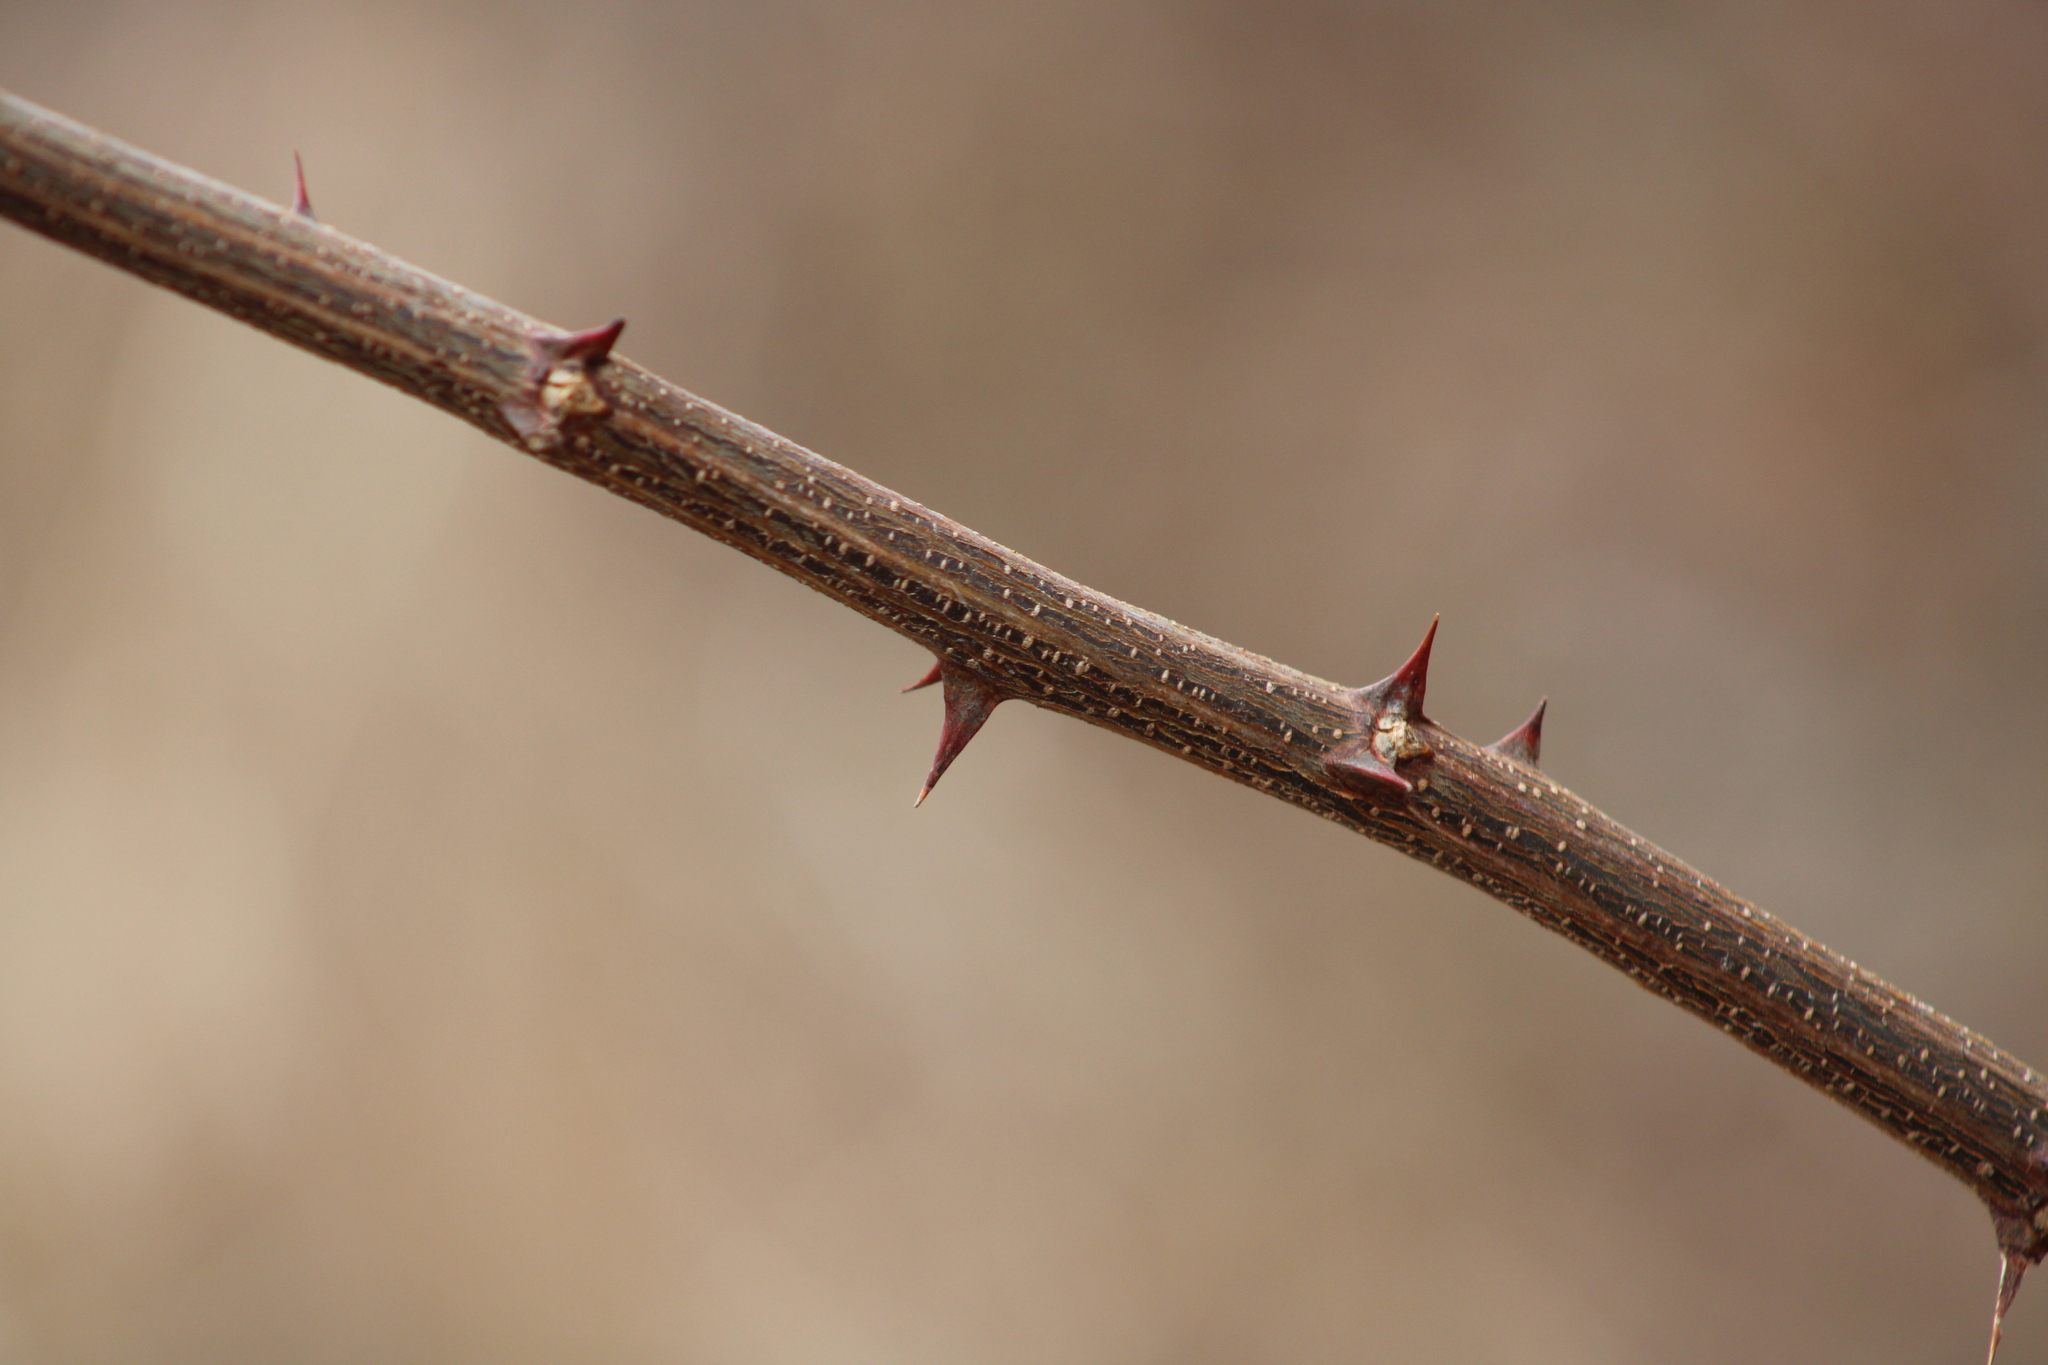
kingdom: Plantae
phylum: Tracheophyta
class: Magnoliopsida
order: Fabales
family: Fabaceae
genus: Robinia
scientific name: Robinia pseudoacacia
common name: Black locust
